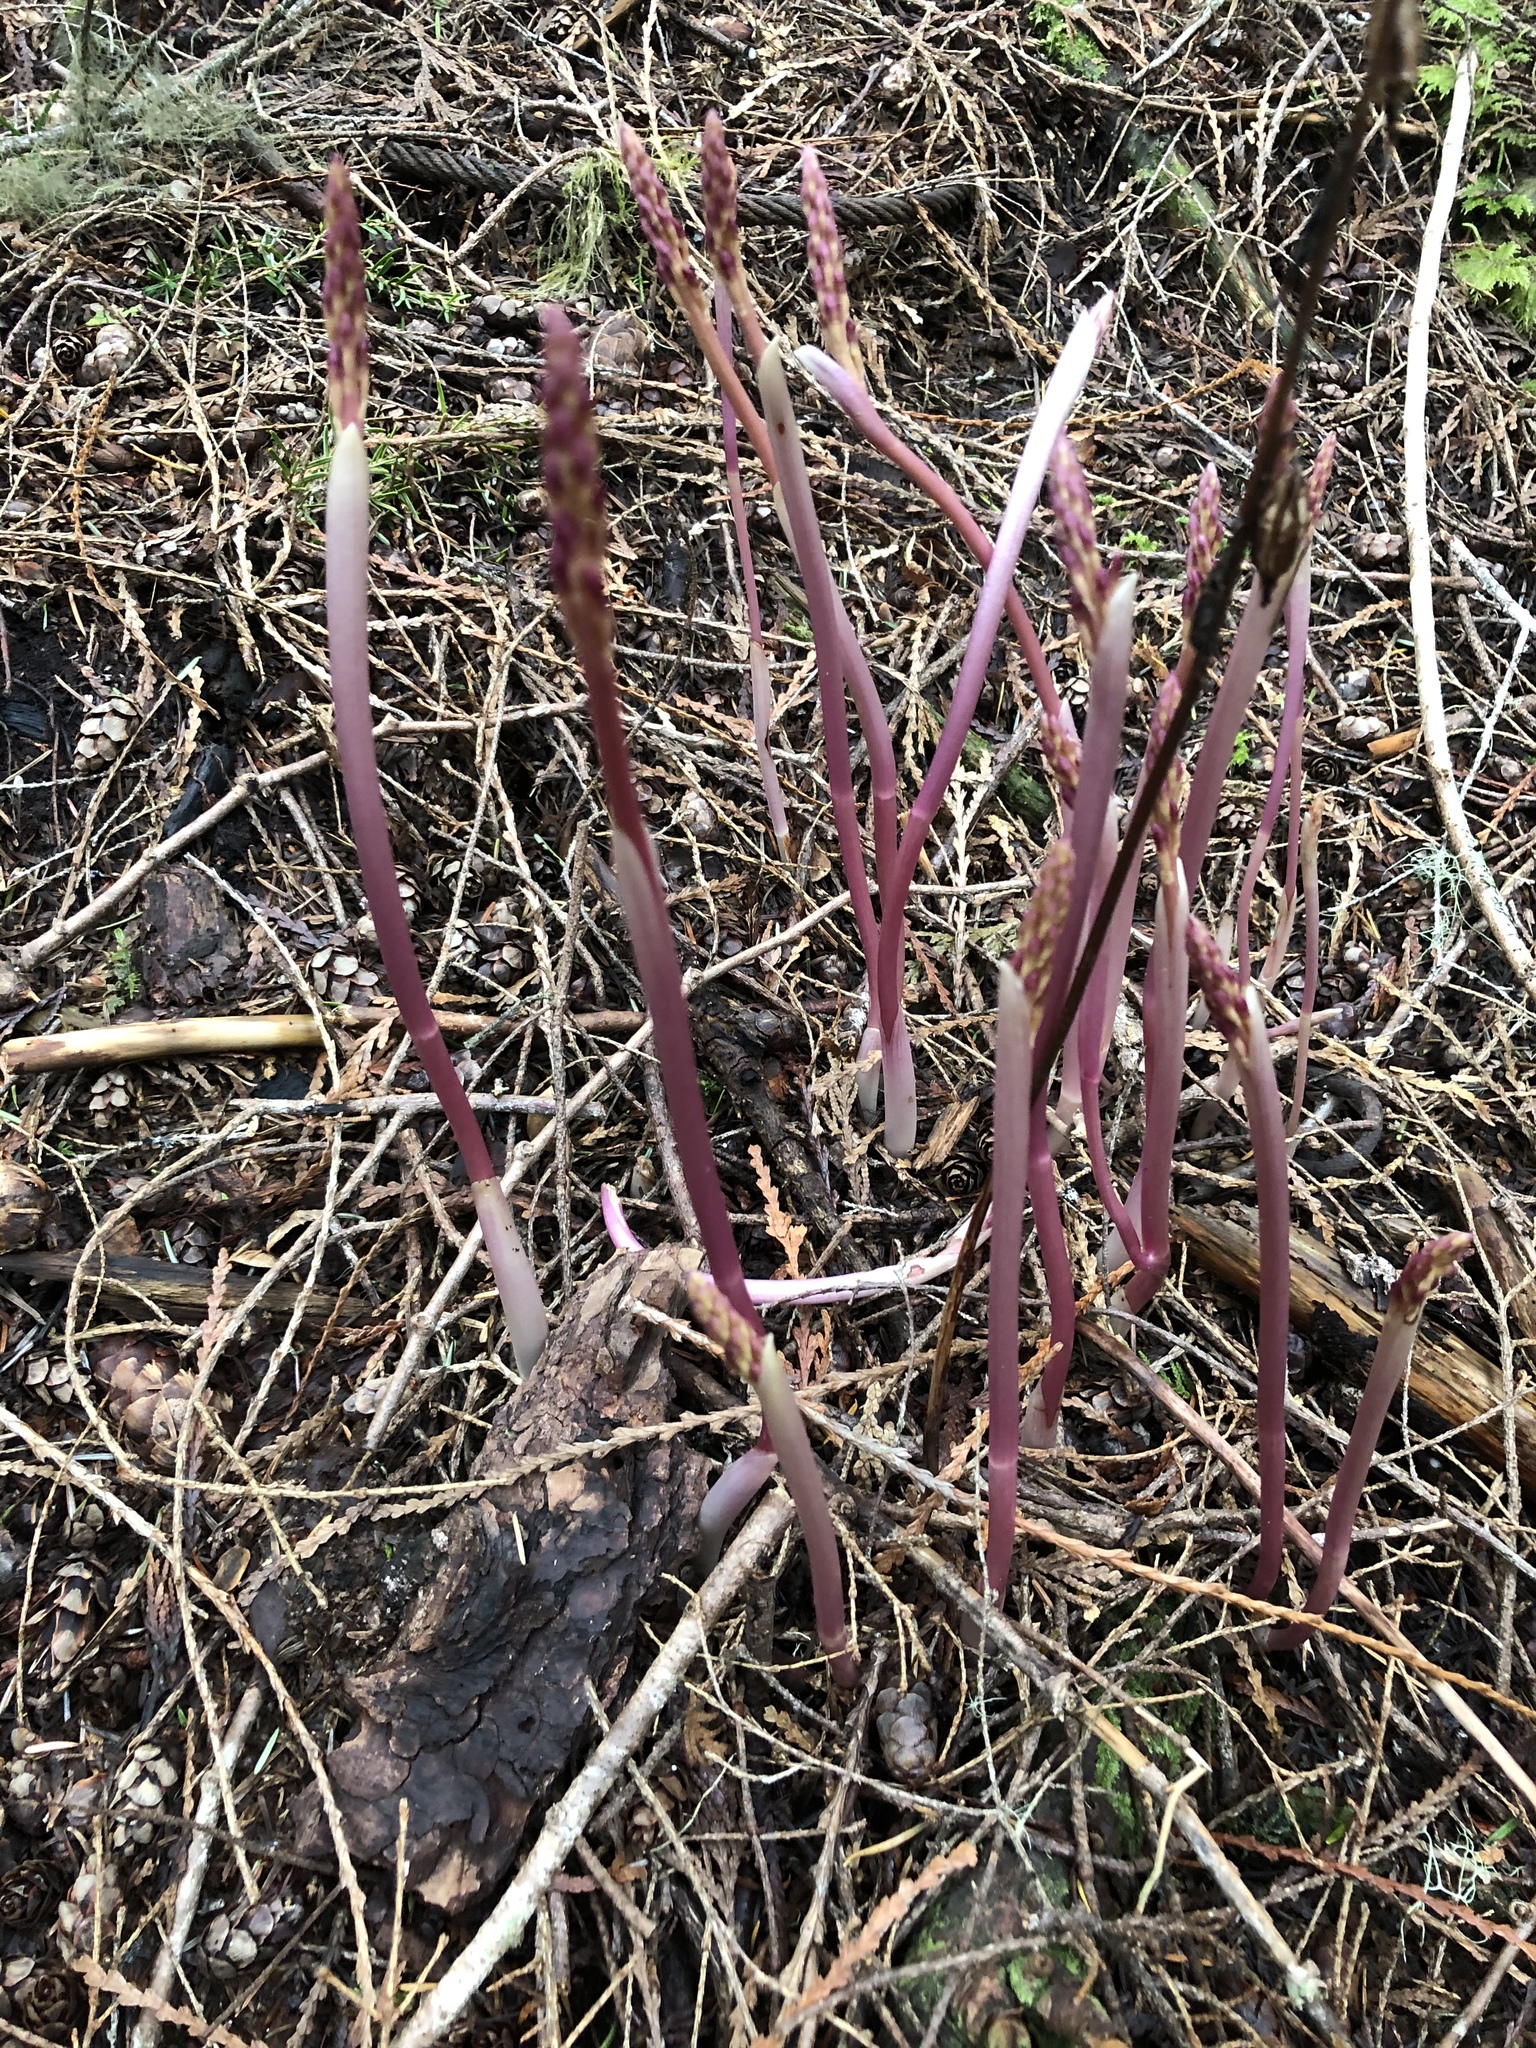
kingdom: Plantae
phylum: Tracheophyta
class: Liliopsida
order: Asparagales
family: Orchidaceae
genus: Corallorhiza
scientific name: Corallorhiza mertensiana
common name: Pacific coralroot
